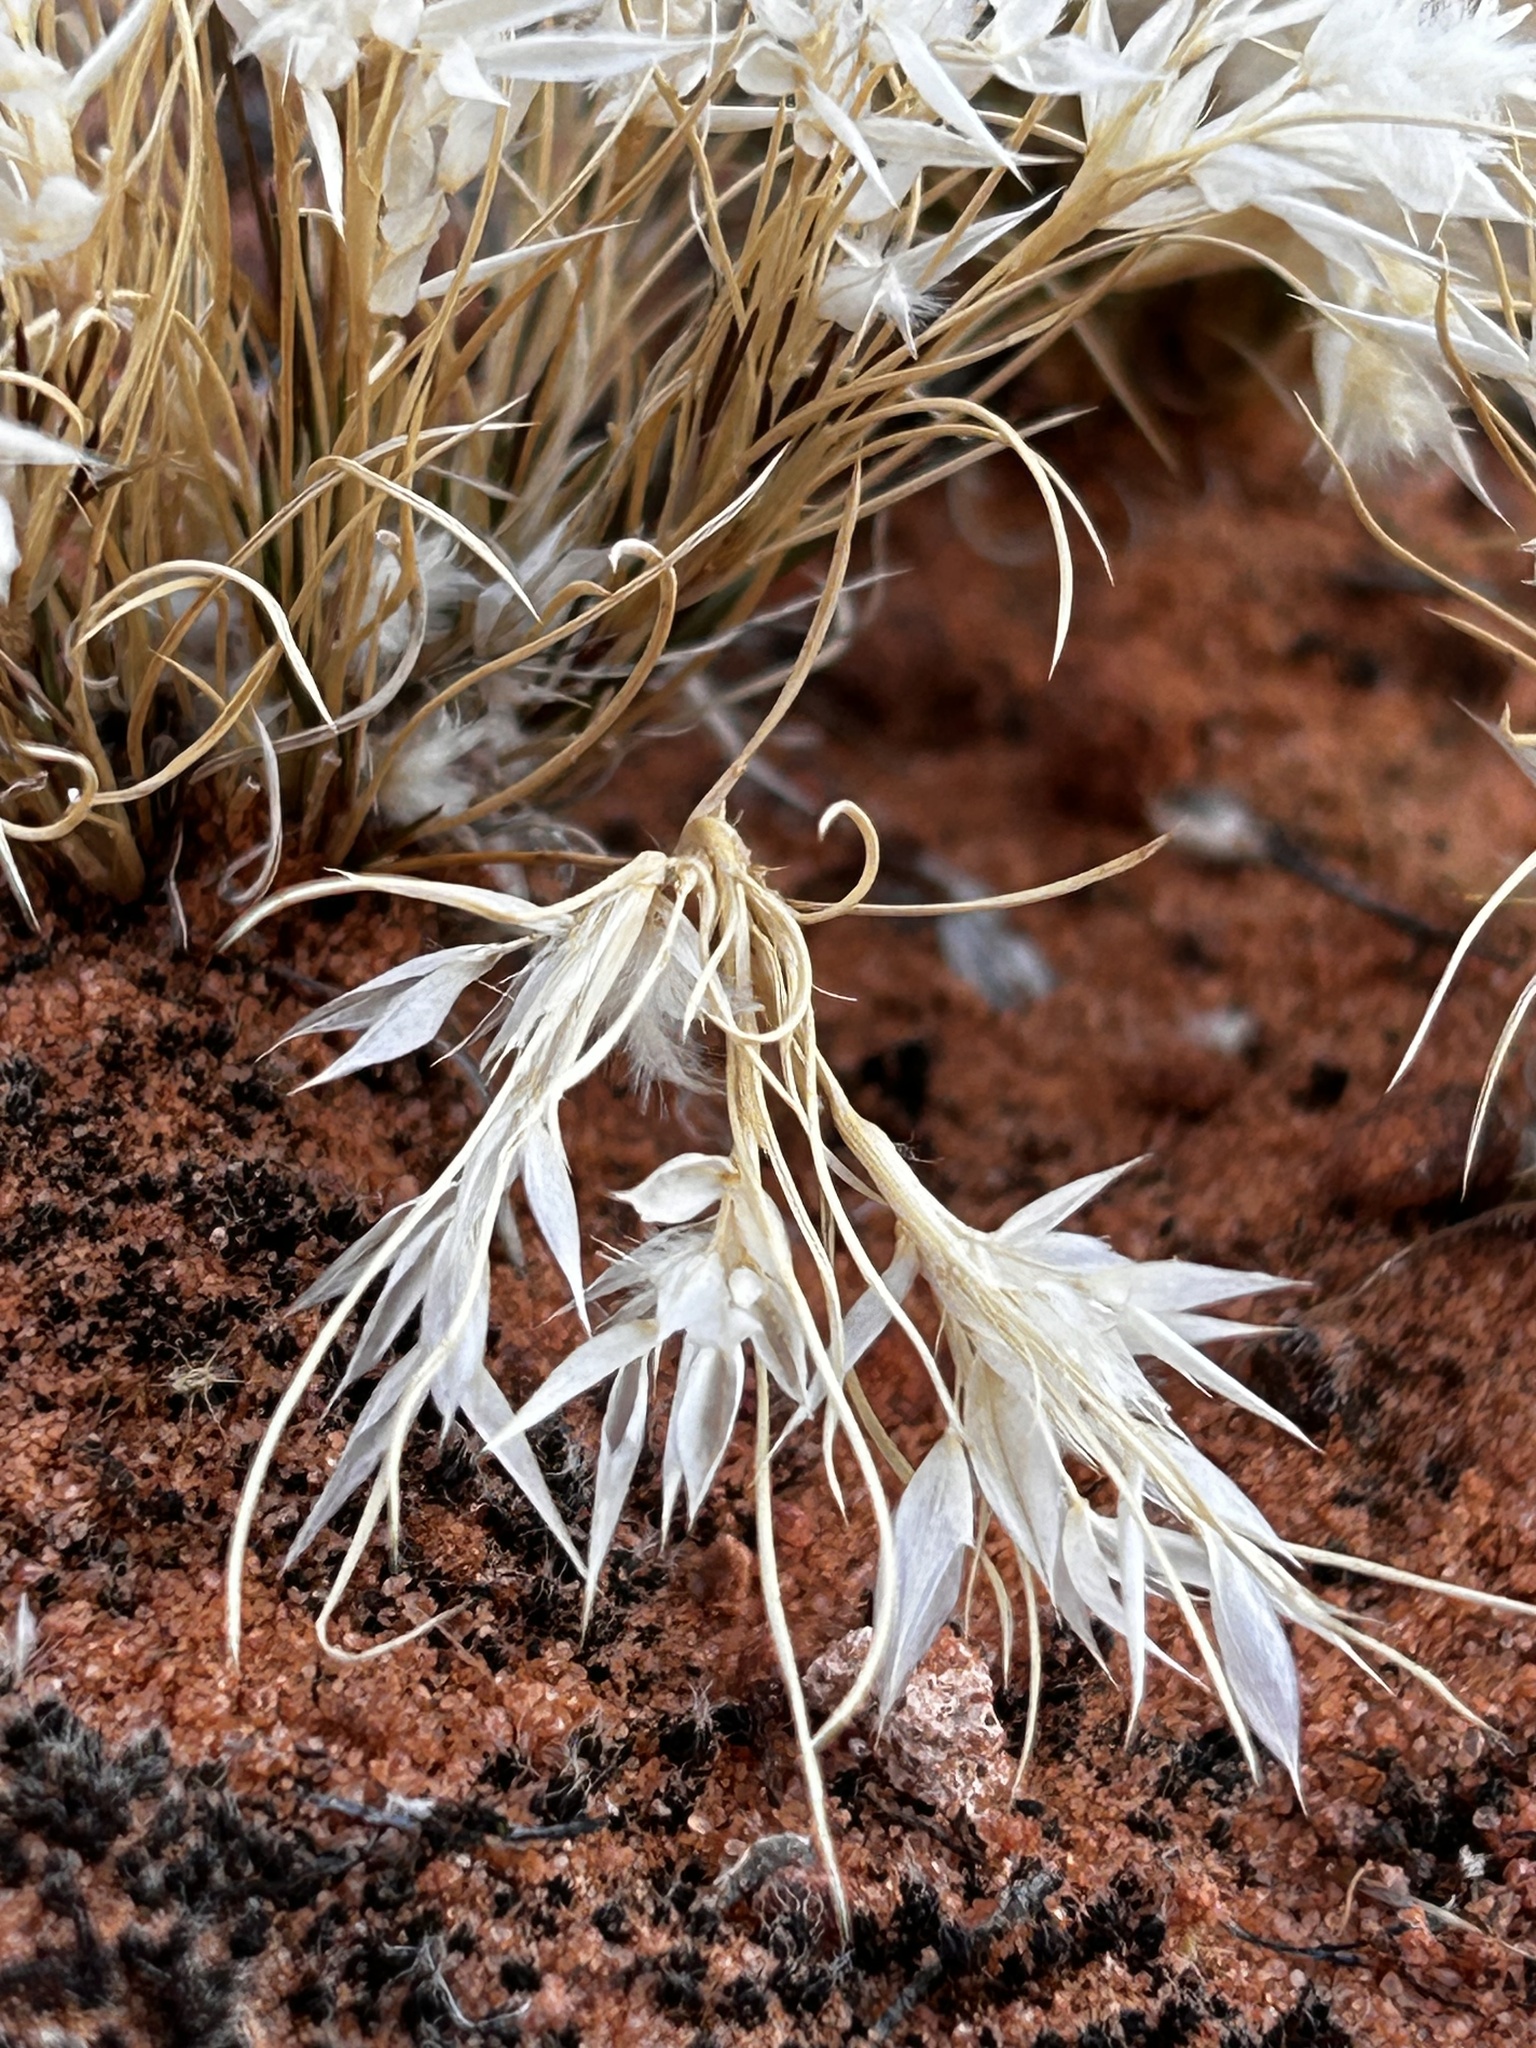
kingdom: Plantae
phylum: Tracheophyta
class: Liliopsida
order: Poales
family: Poaceae
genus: Dasyochloa
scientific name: Dasyochloa pulchella
